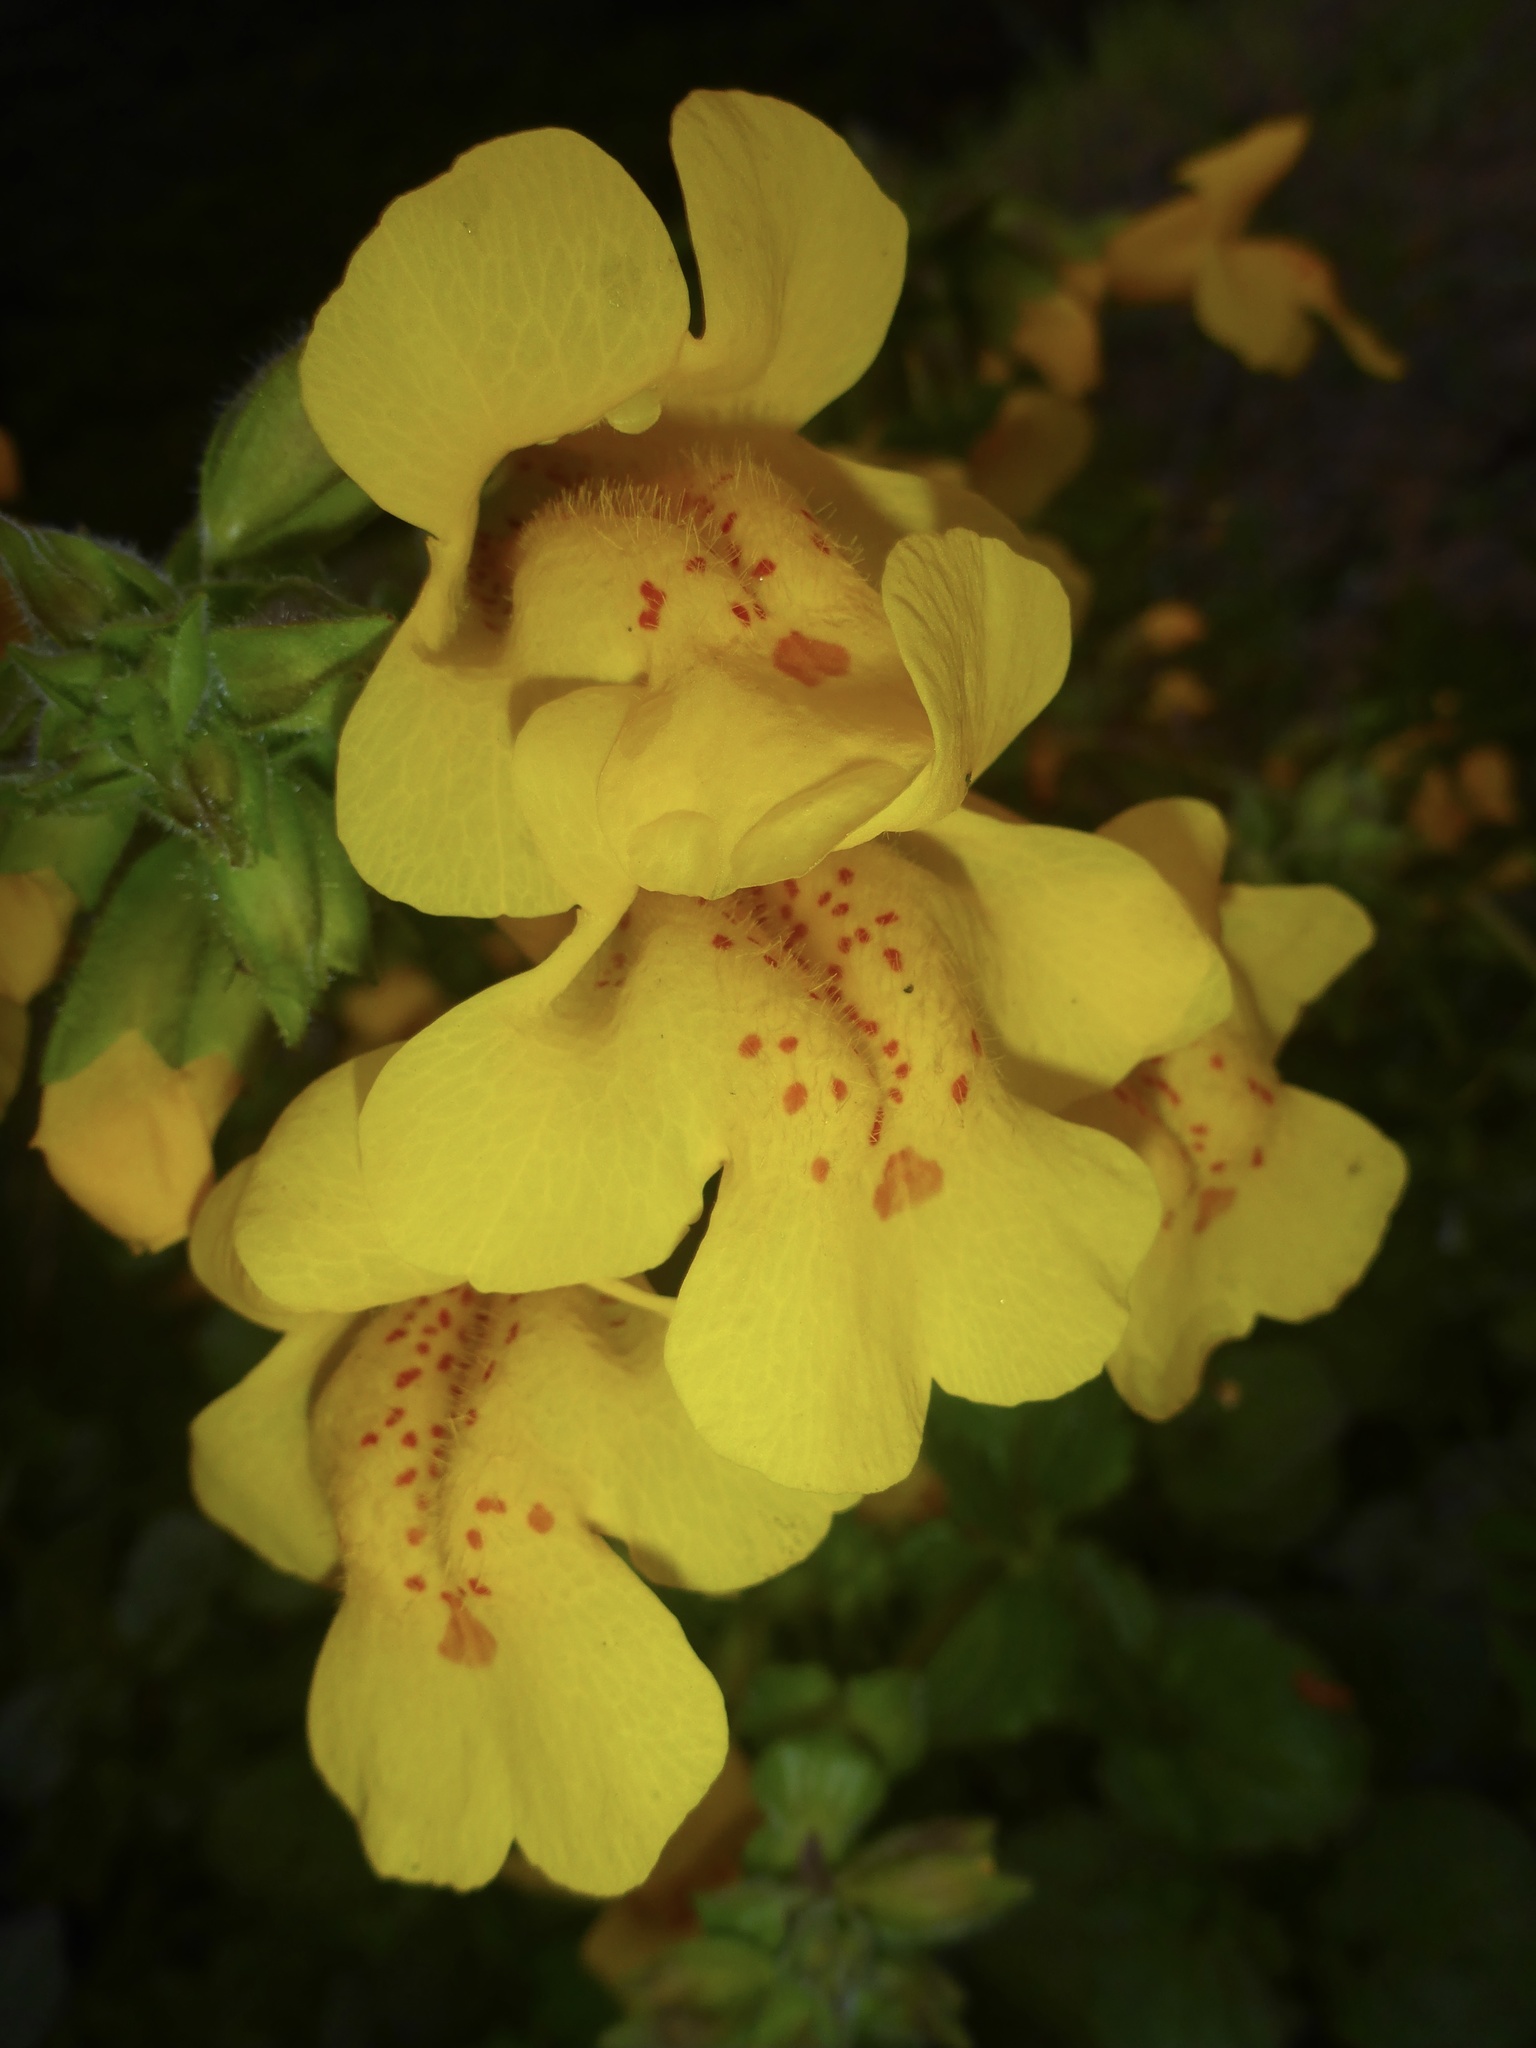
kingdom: Plantae
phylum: Tracheophyta
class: Magnoliopsida
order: Lamiales
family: Phrymaceae
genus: Erythranthe
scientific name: Erythranthe guttata
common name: Monkeyflower
